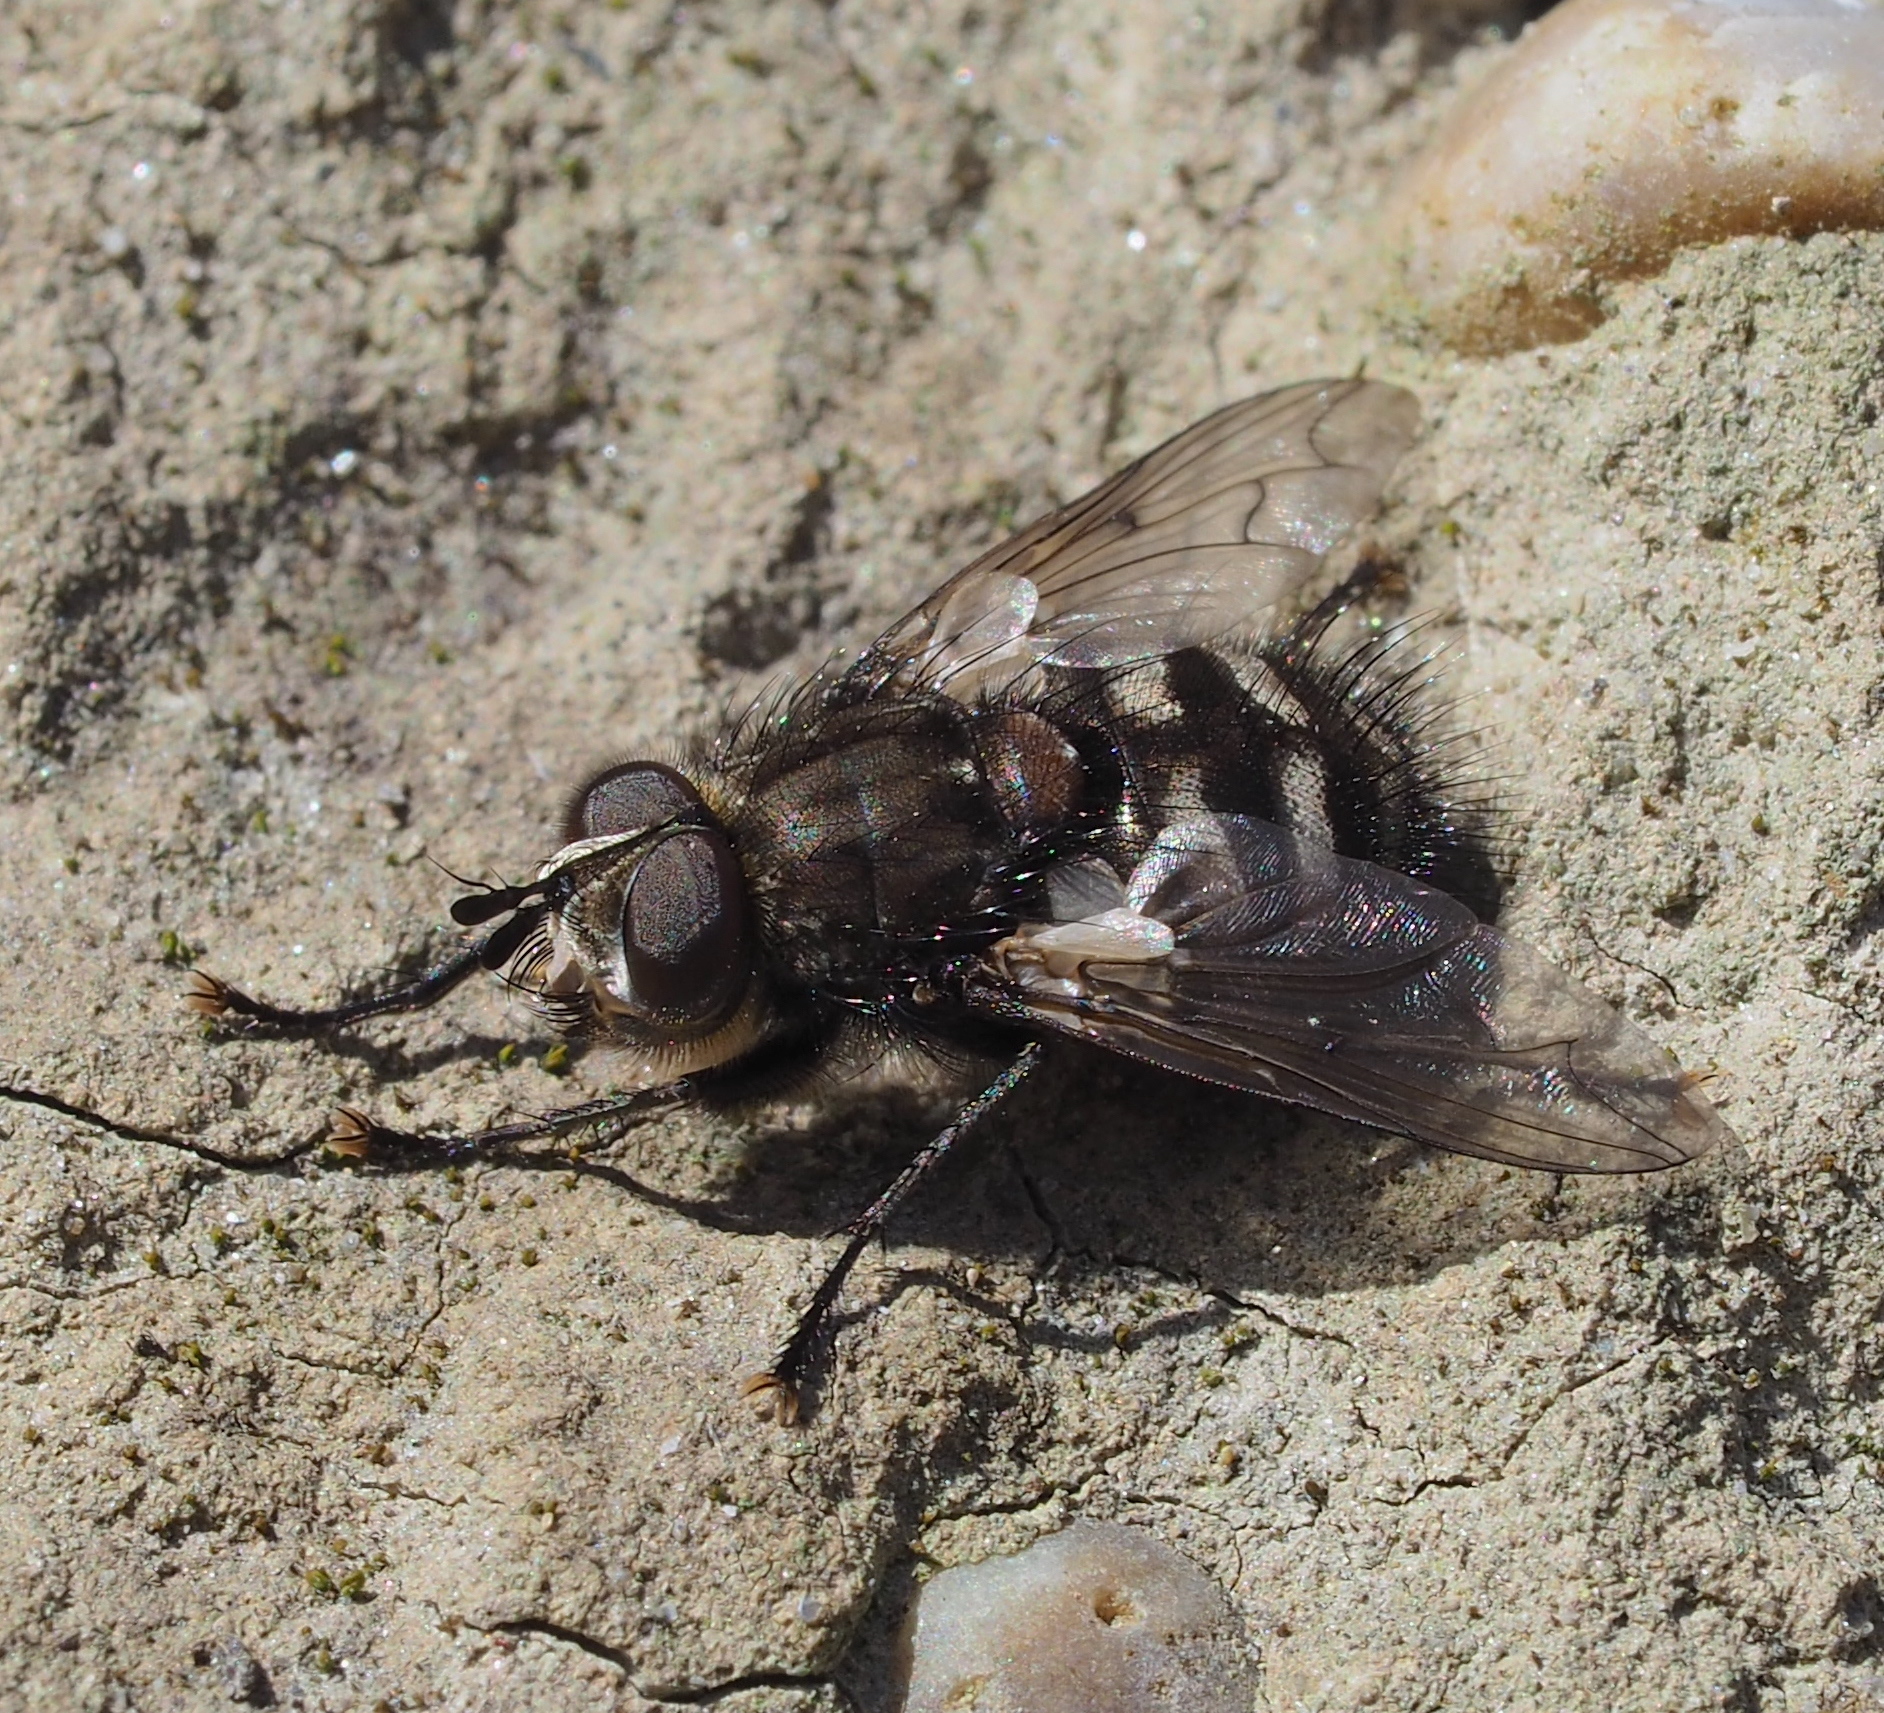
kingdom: Animalia
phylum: Arthropoda
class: Insecta
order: Diptera
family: Tachinidae
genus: Panzeria
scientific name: Panzeria puparum
